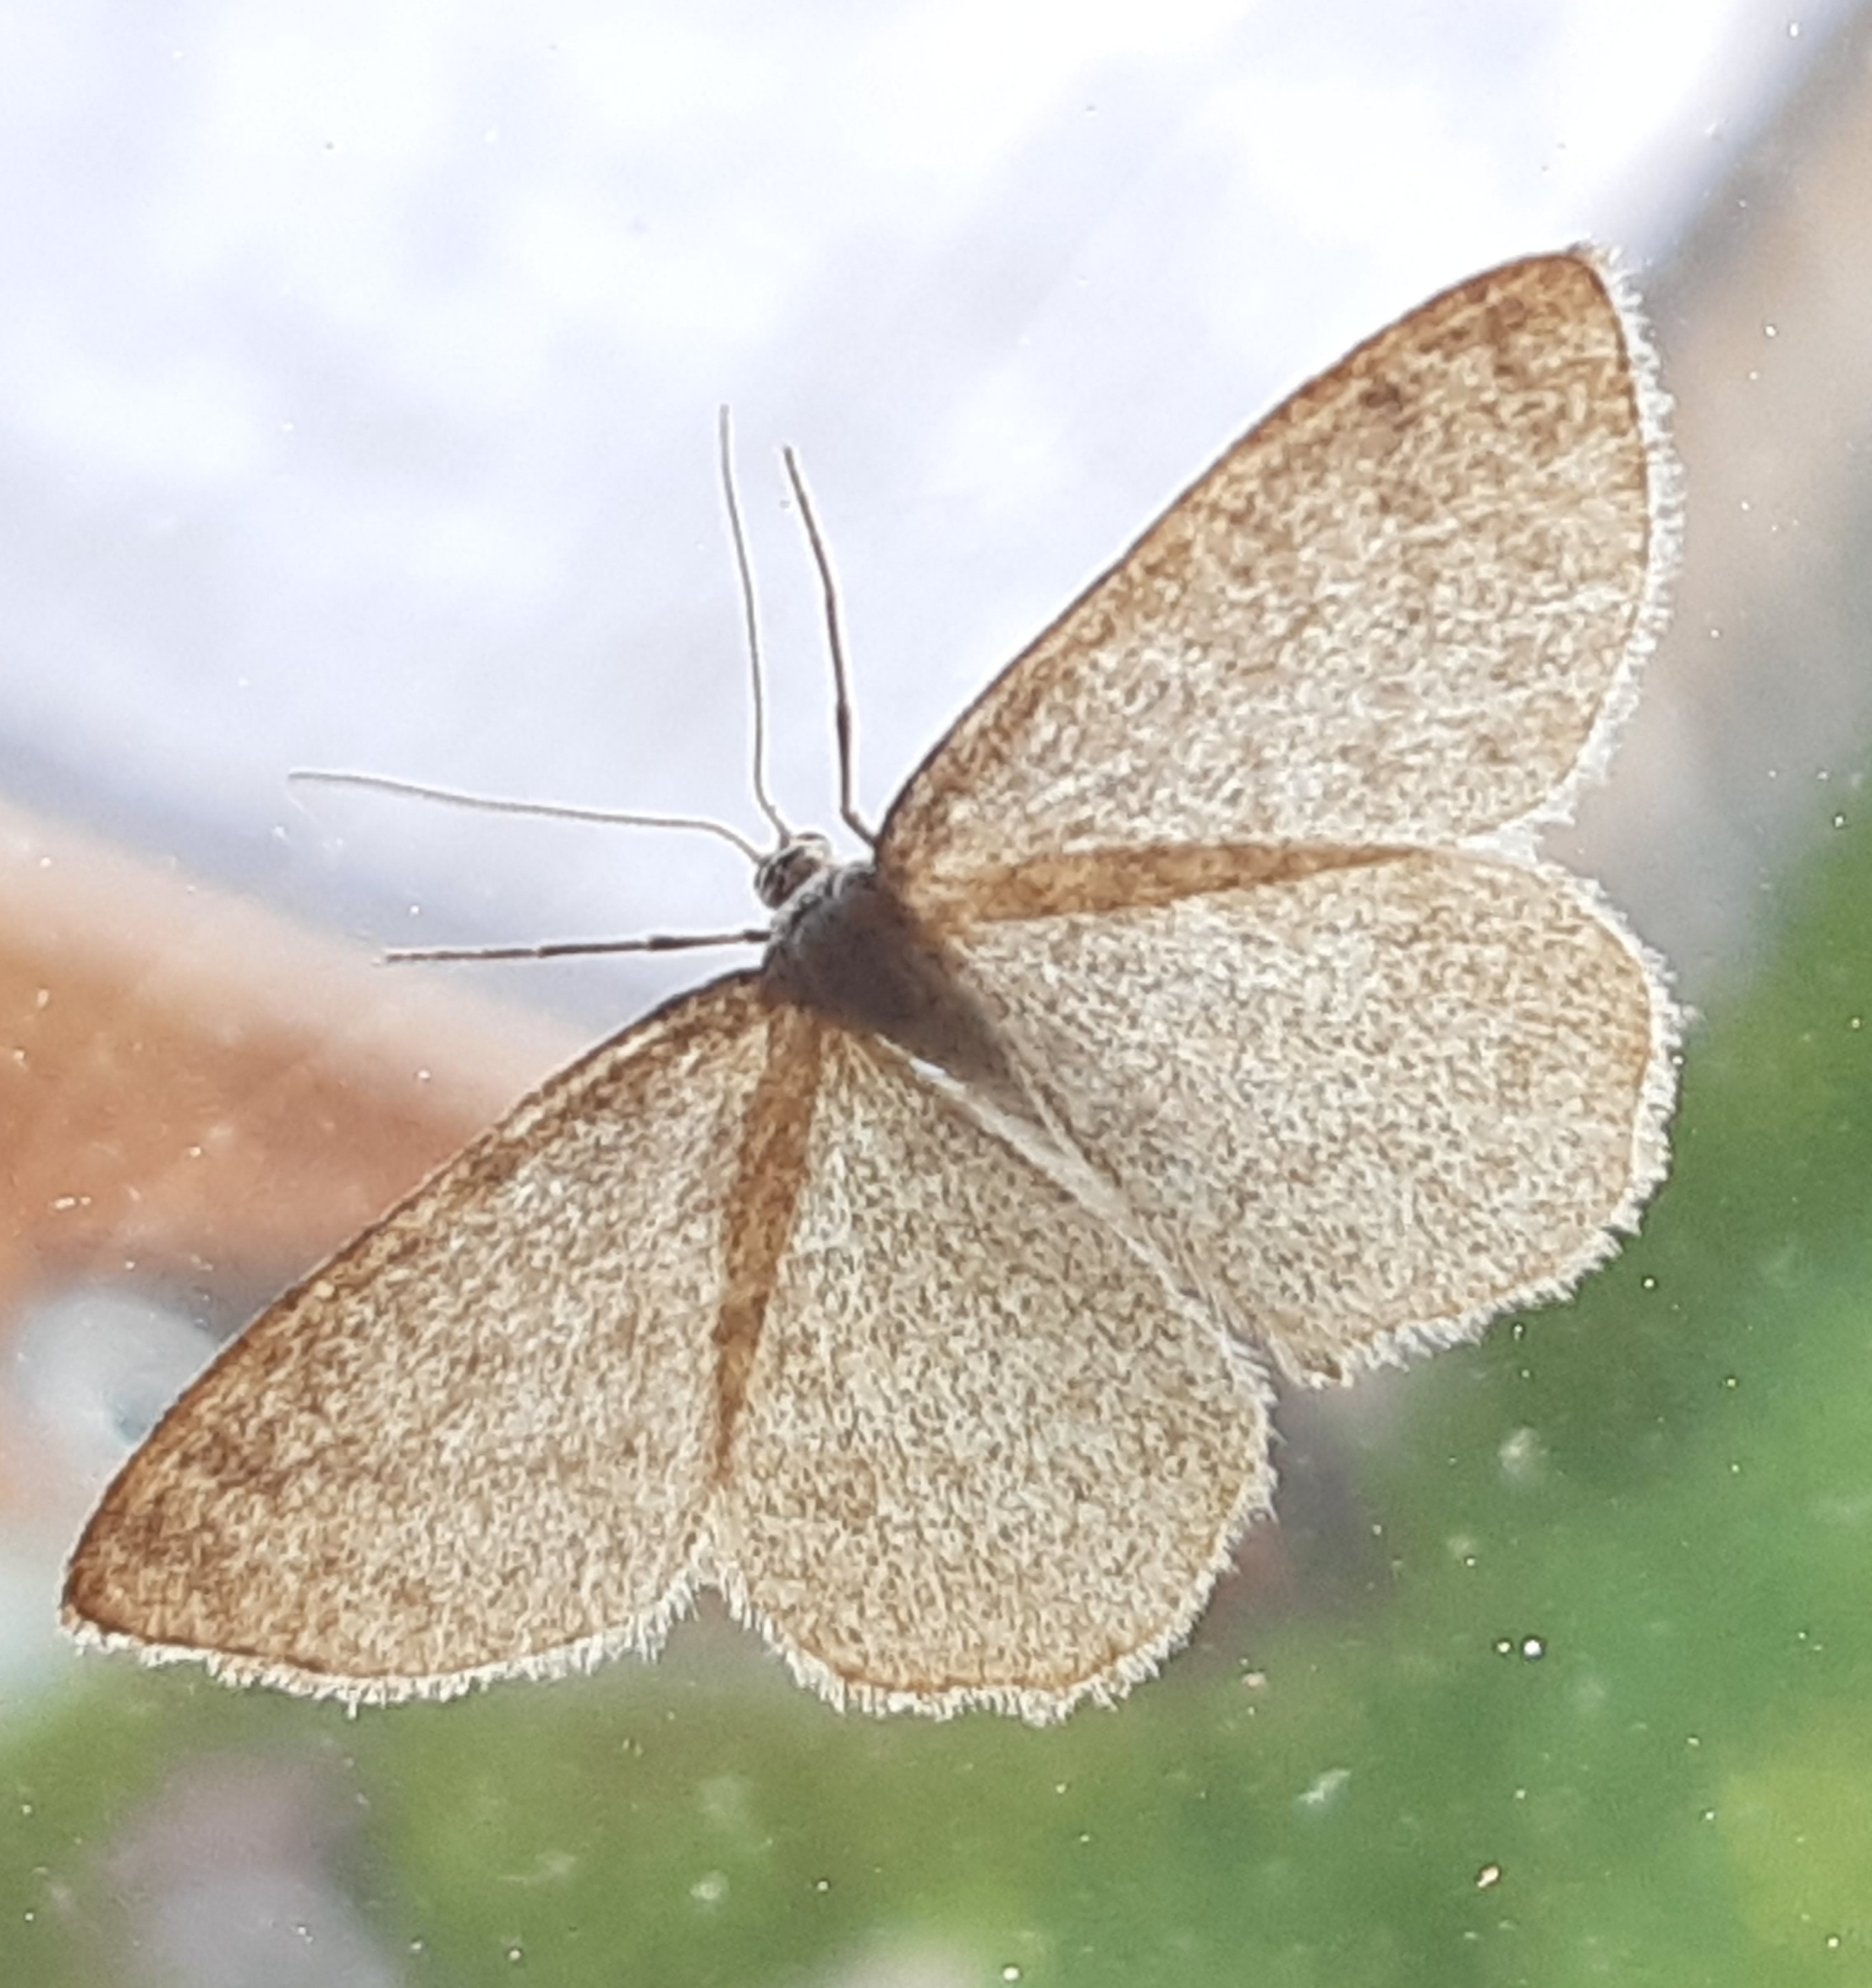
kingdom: Animalia
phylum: Arthropoda
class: Insecta
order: Lepidoptera
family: Geometridae
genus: Scopula
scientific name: Scopula ternata
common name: Smoky wave
